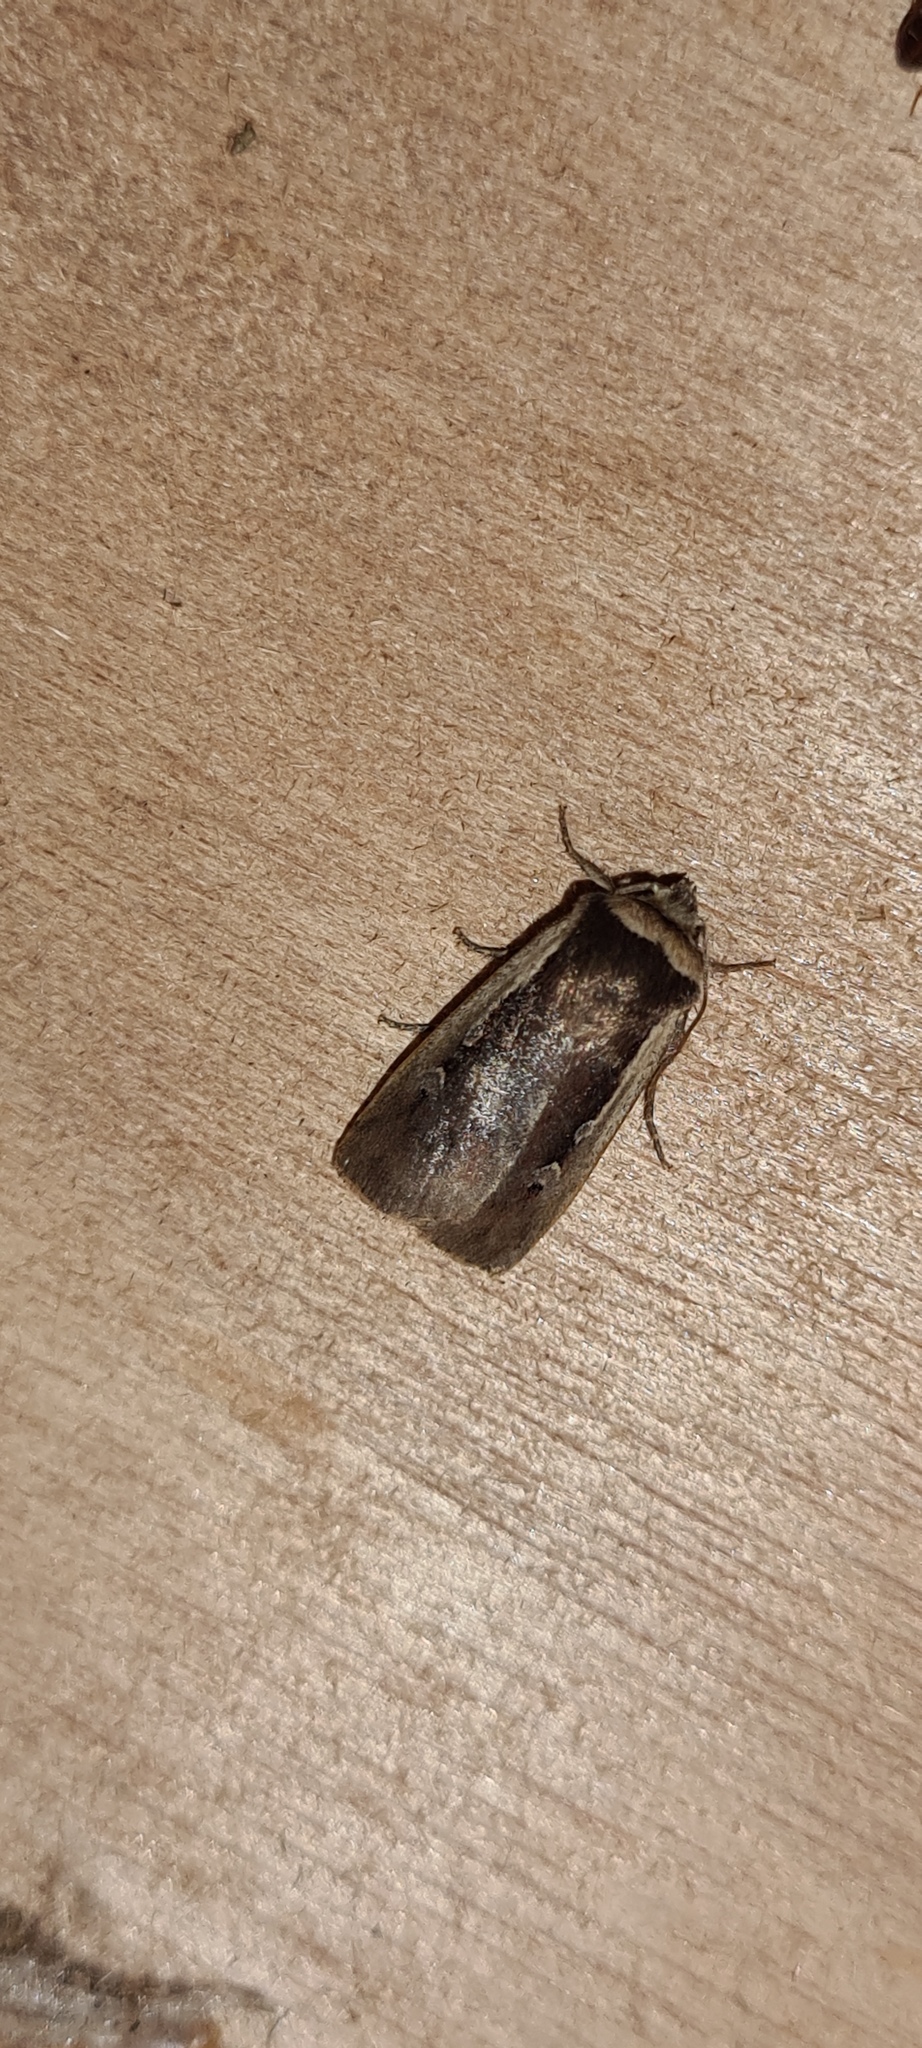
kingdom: Animalia
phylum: Arthropoda
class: Insecta
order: Lepidoptera
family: Noctuidae
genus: Ochropleura
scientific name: Ochropleura plecta
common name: Flame shoulder
